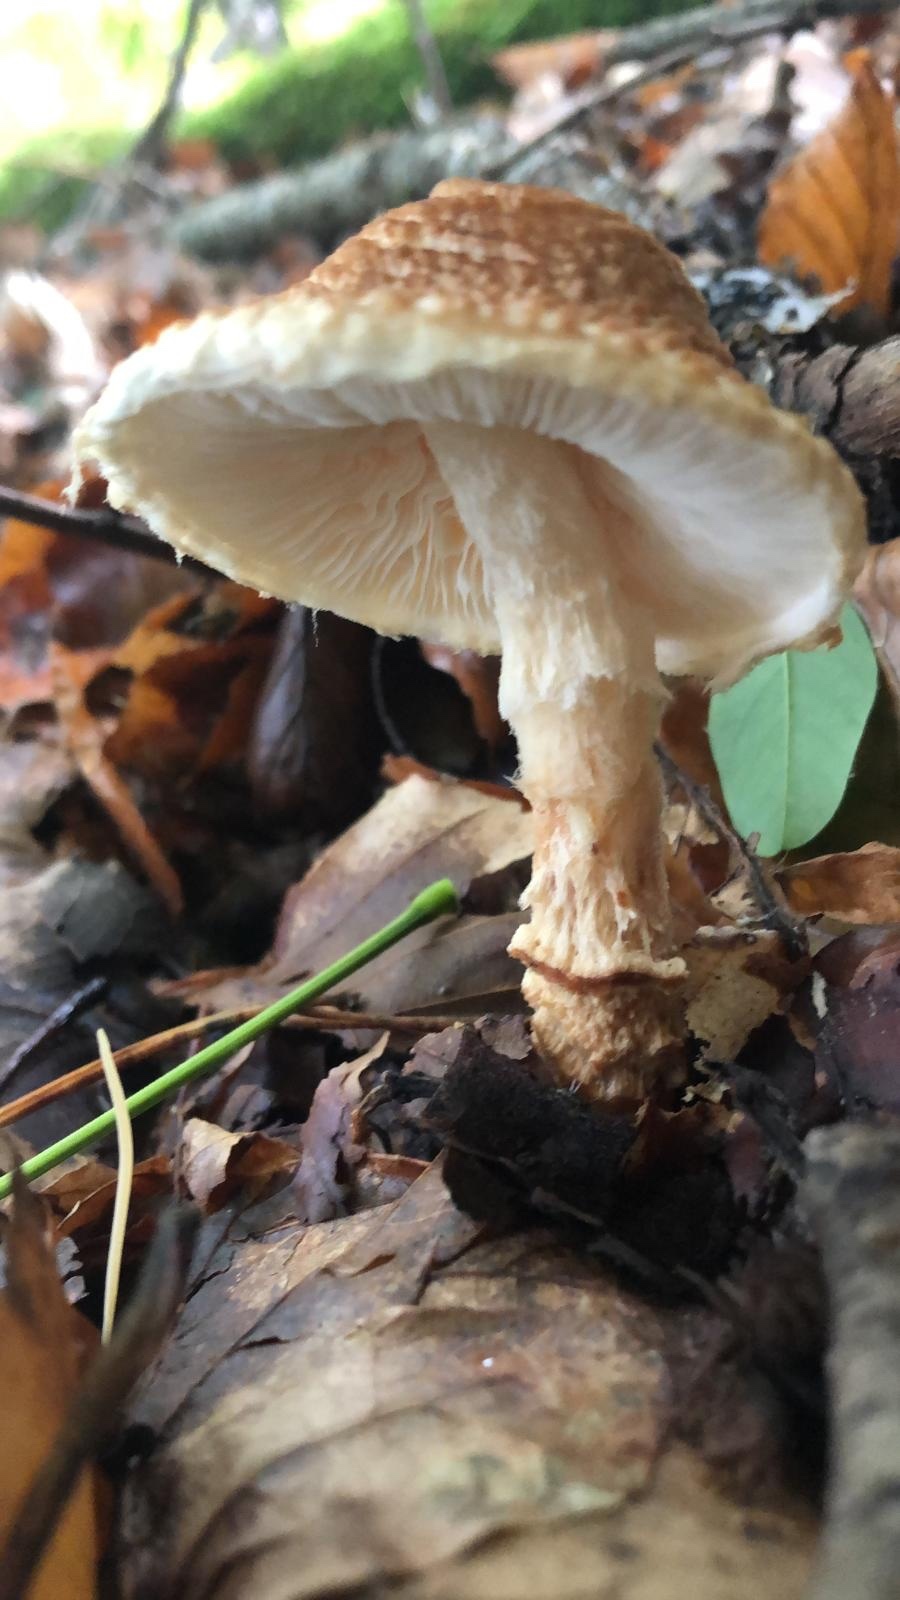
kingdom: Fungi
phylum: Basidiomycota
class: Agaricomycetes
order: Agaricales
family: Agaricaceae
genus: Lepiota
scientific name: Lepiota magnispora
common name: Yellowfoot dapperling
